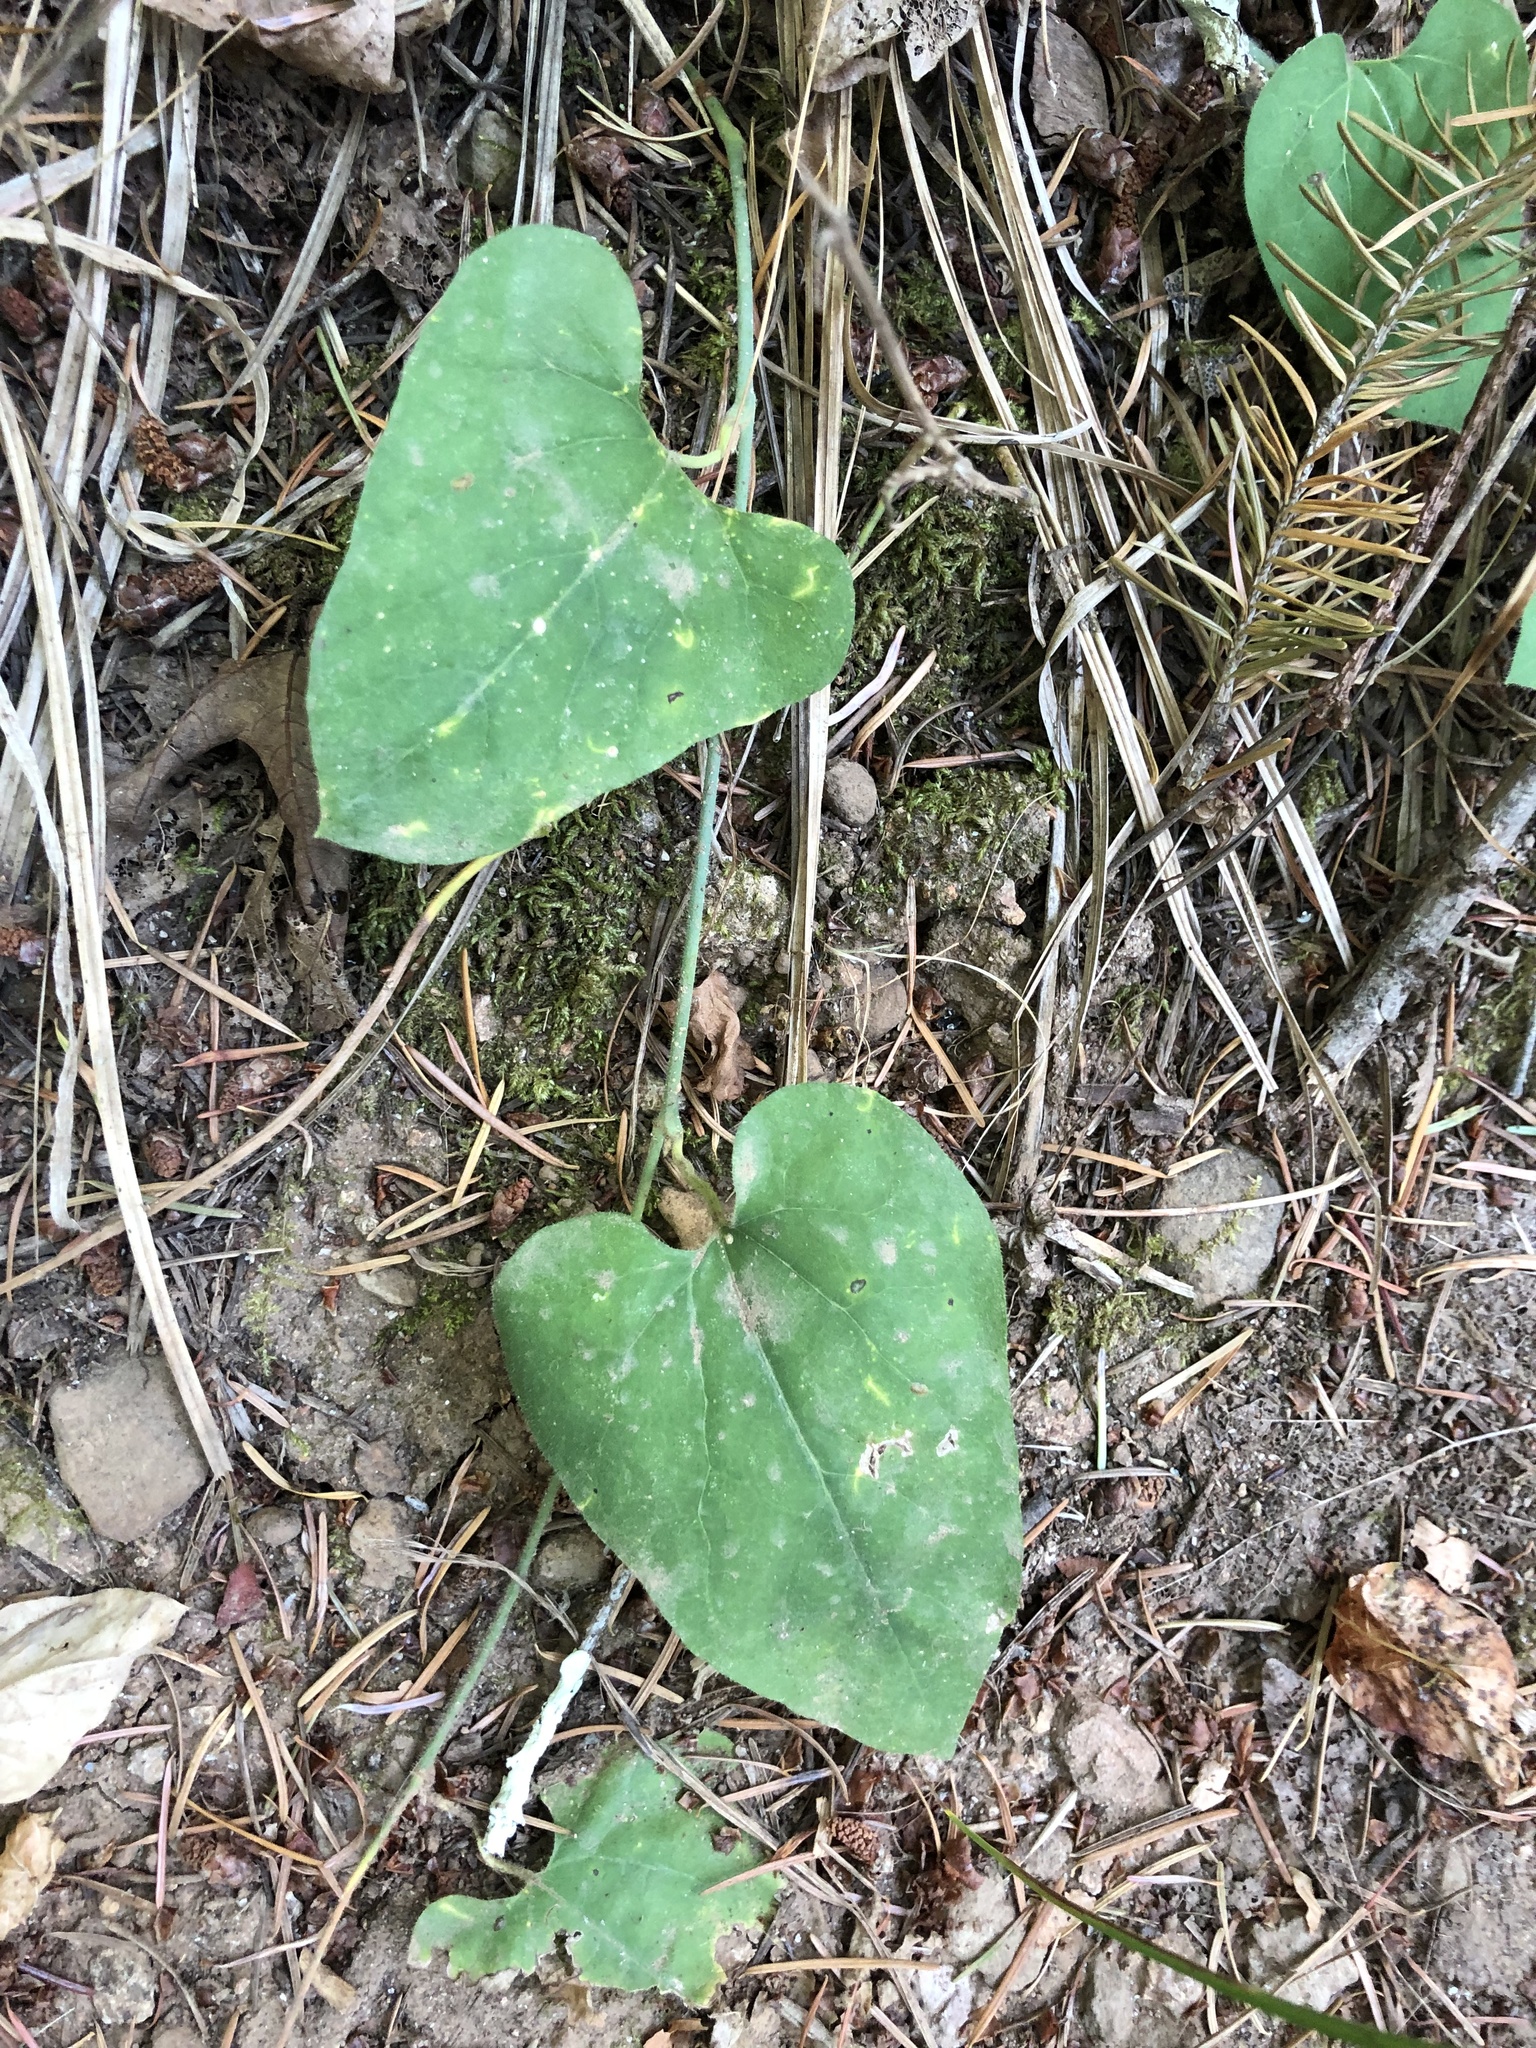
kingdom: Plantae
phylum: Tracheophyta
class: Magnoliopsida
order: Piperales
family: Aristolochiaceae
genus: Isotrema
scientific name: Isotrema californicum
